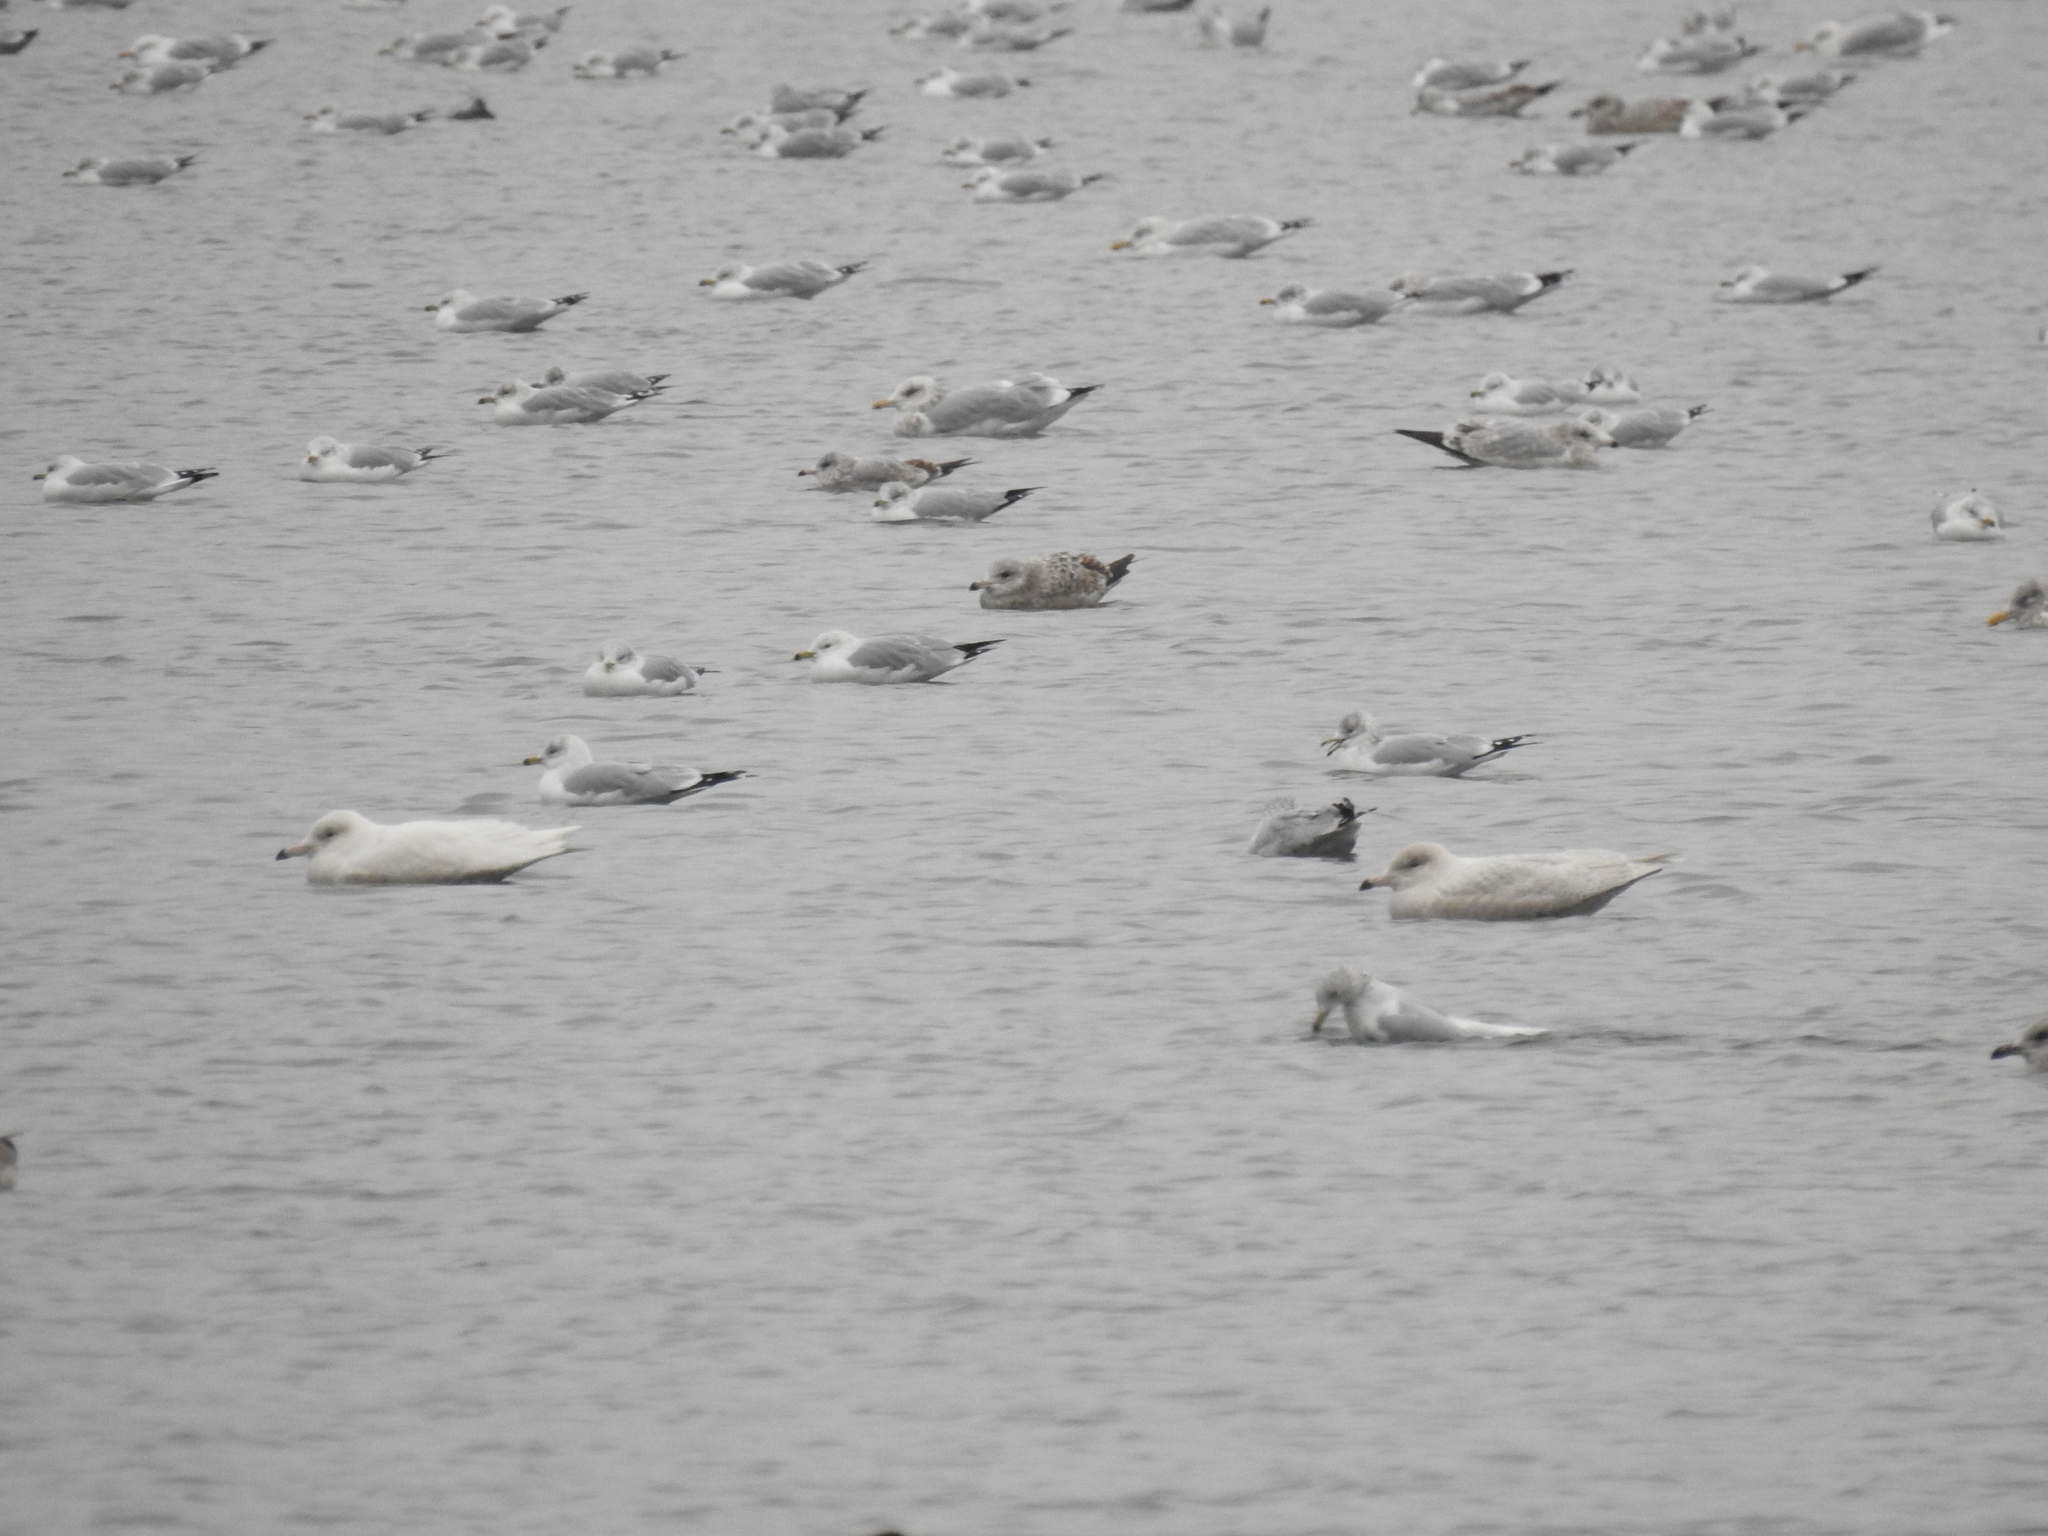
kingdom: Animalia
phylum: Chordata
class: Aves
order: Charadriiformes
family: Laridae
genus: Larus
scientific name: Larus hyperboreus
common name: Glaucous gull
